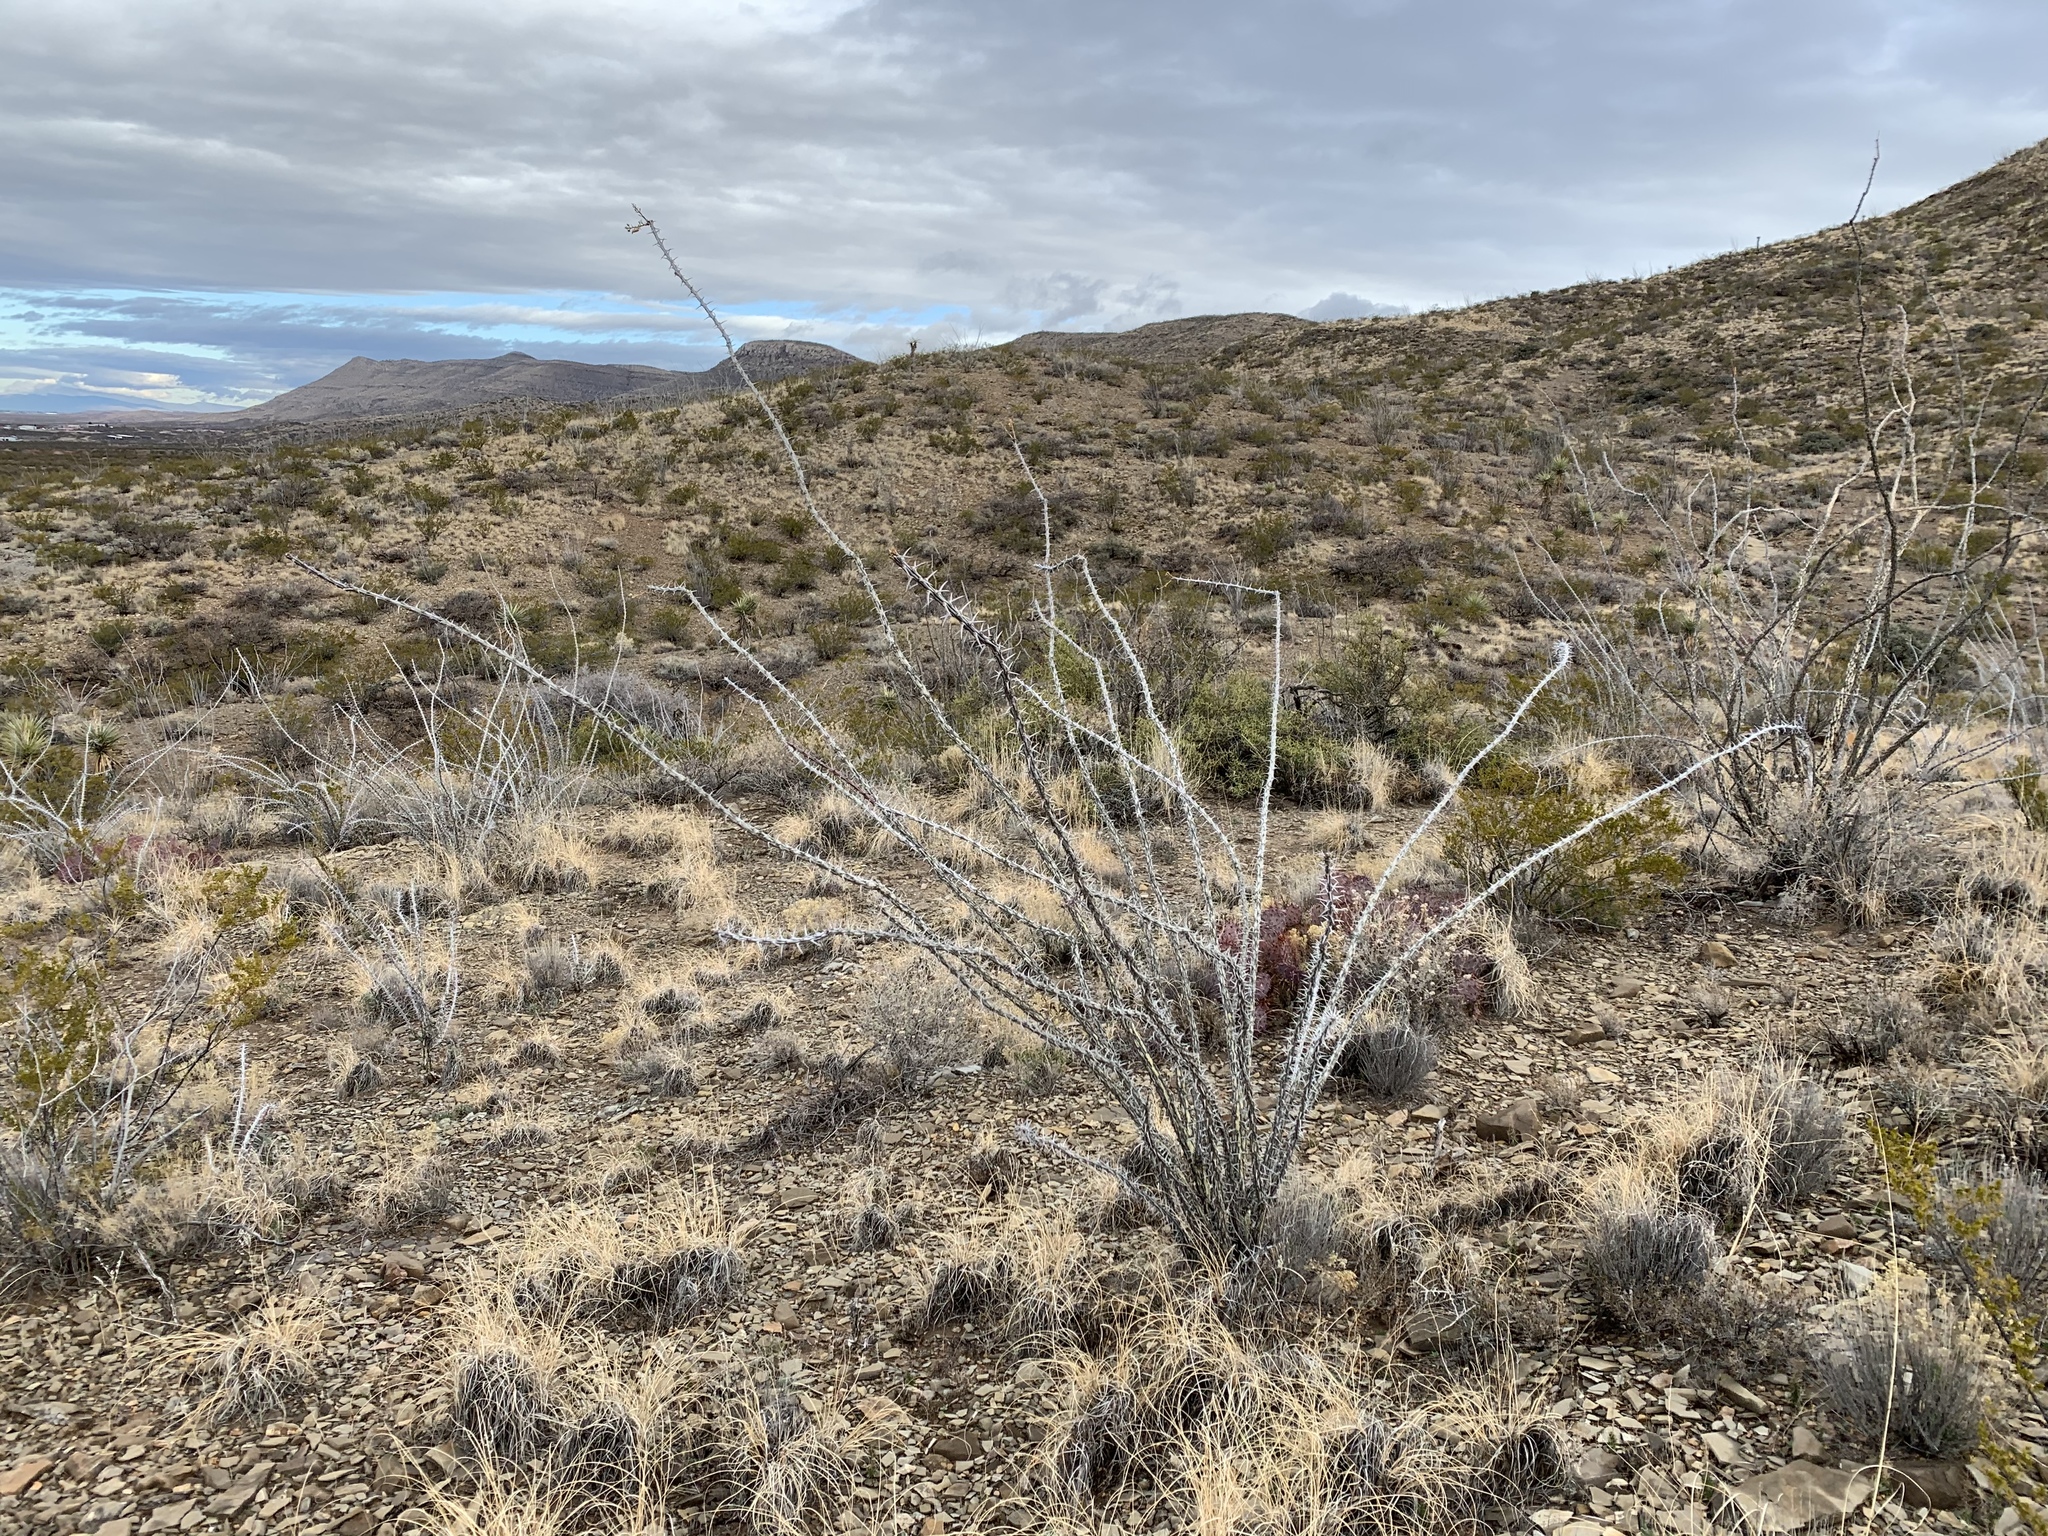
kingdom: Plantae
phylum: Tracheophyta
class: Magnoliopsida
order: Ericales
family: Fouquieriaceae
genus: Fouquieria
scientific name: Fouquieria splendens
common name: Vine-cactus
